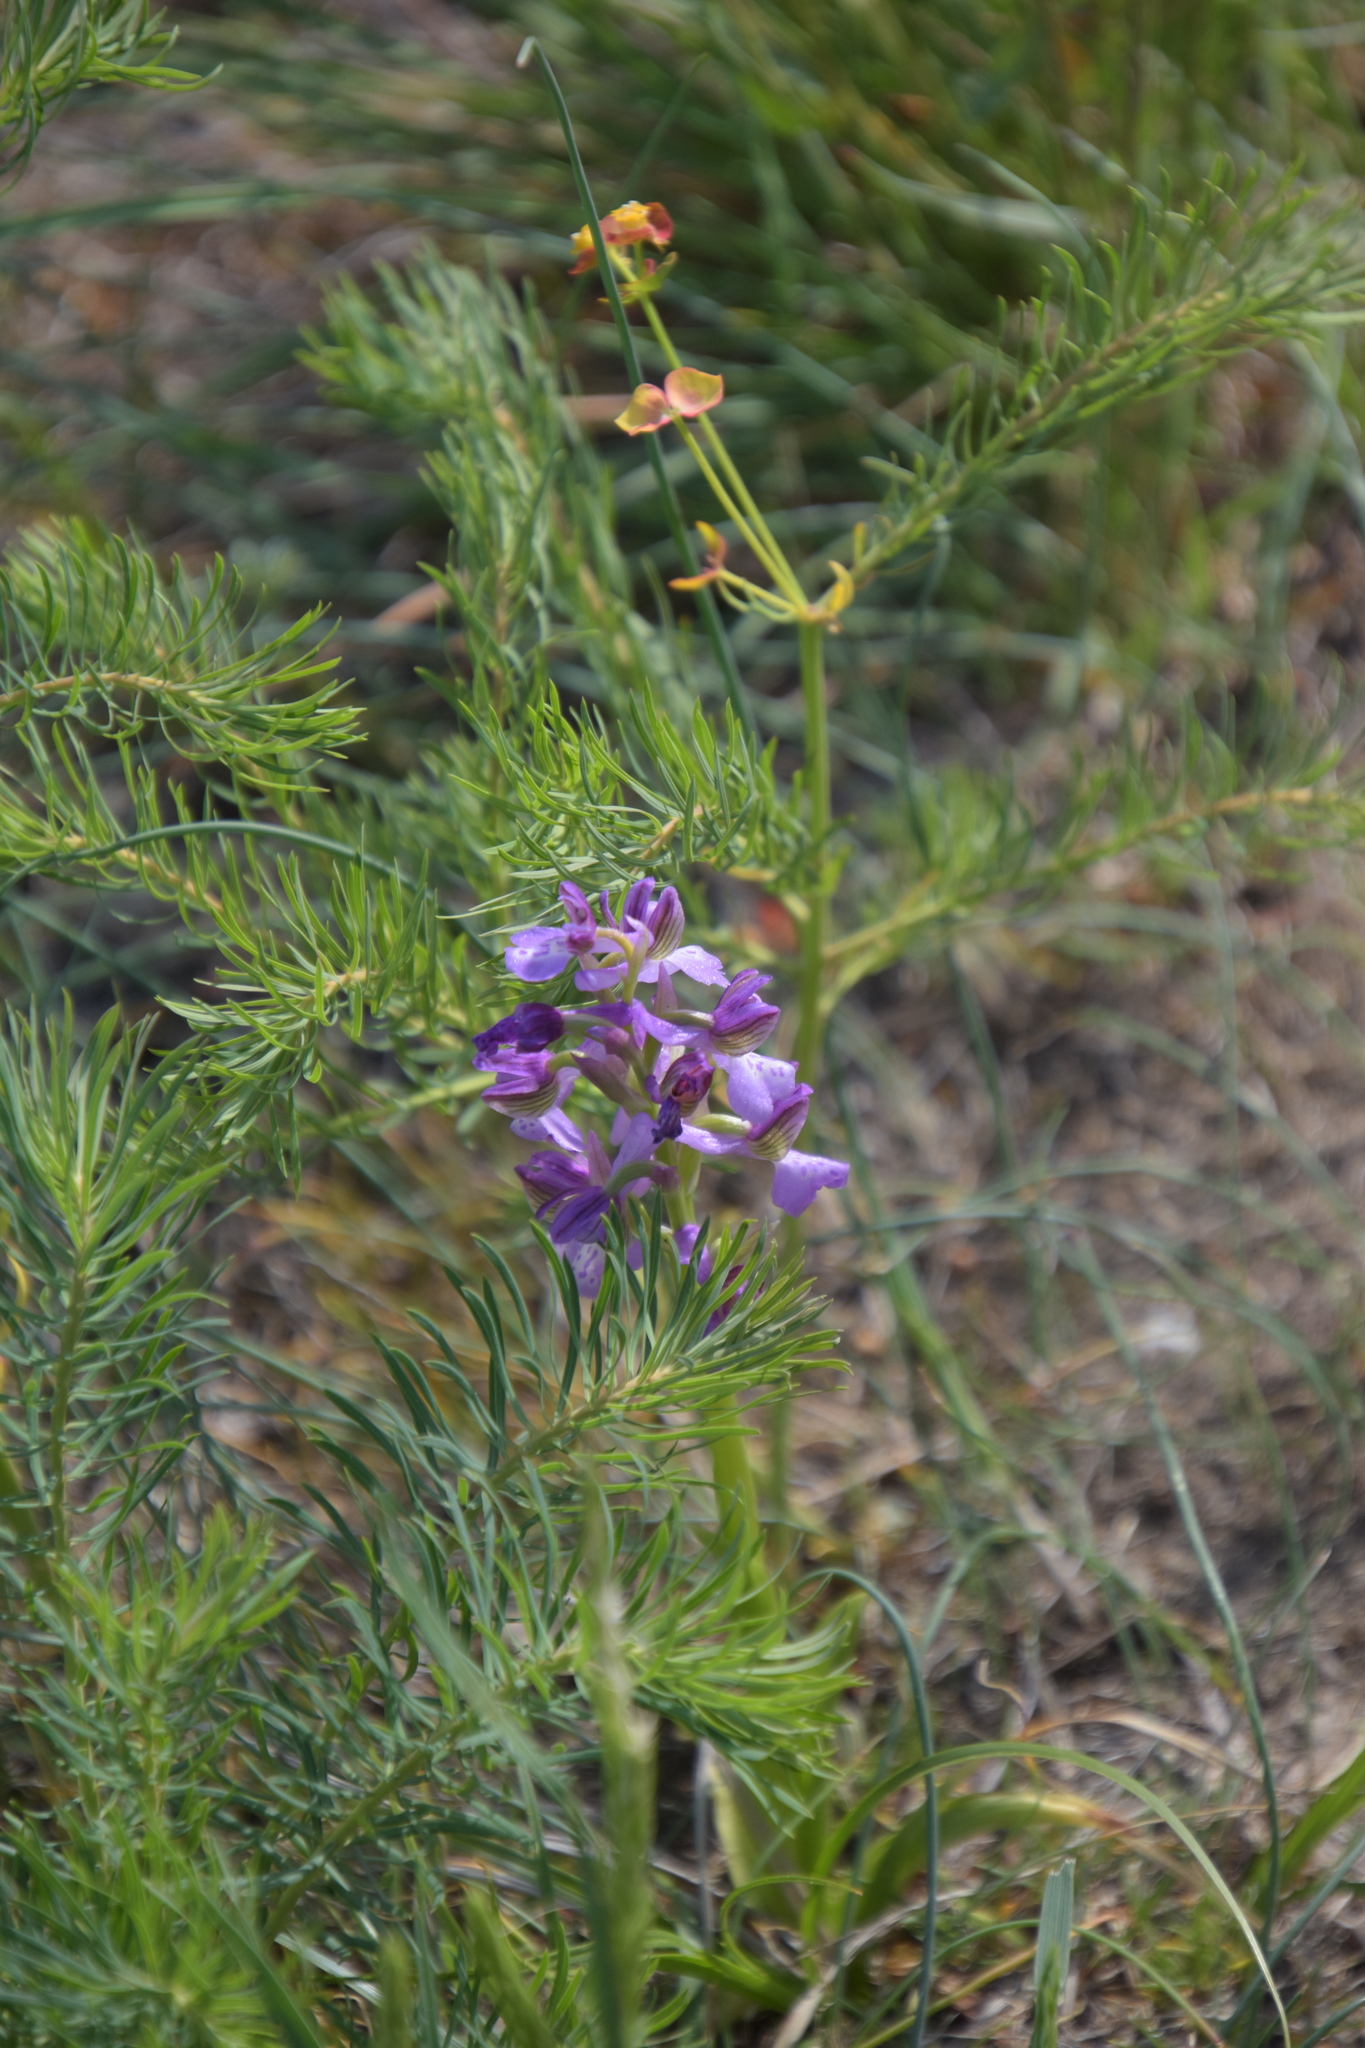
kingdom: Plantae
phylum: Tracheophyta
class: Liliopsida
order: Asparagales
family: Orchidaceae
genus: Anacamptis
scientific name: Anacamptis morio
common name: Green-winged orchid
